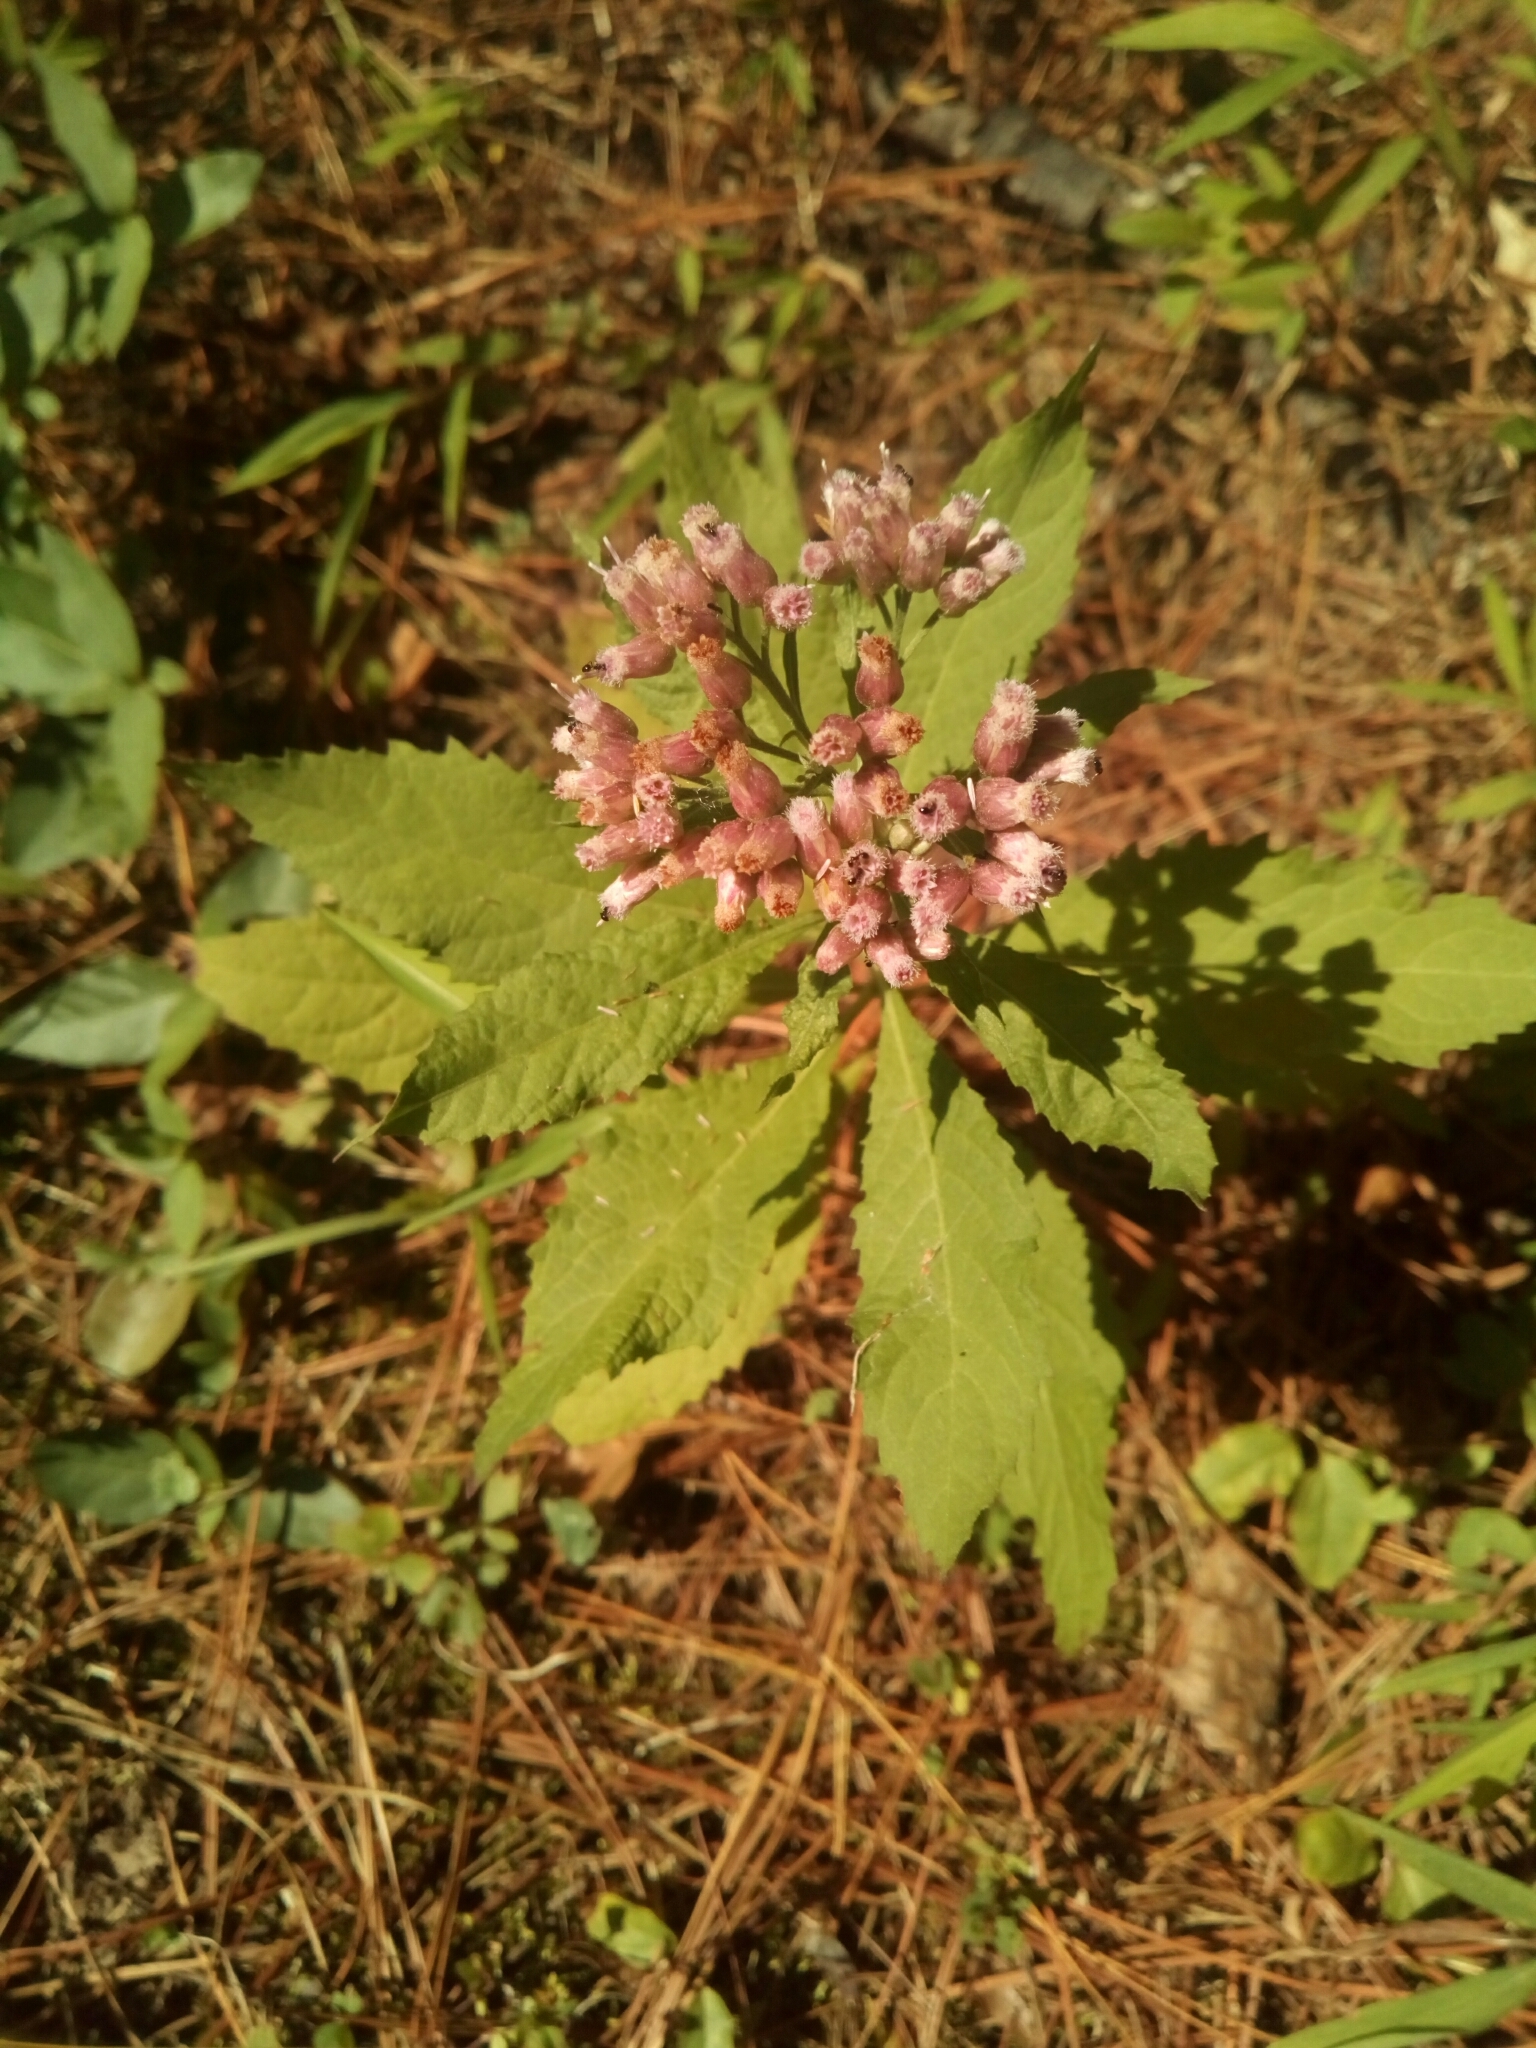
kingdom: Plantae
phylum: Tracheophyta
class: Magnoliopsida
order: Asterales
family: Asteraceae
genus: Pluchea
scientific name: Pluchea camphorata
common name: Camphor pluchea
